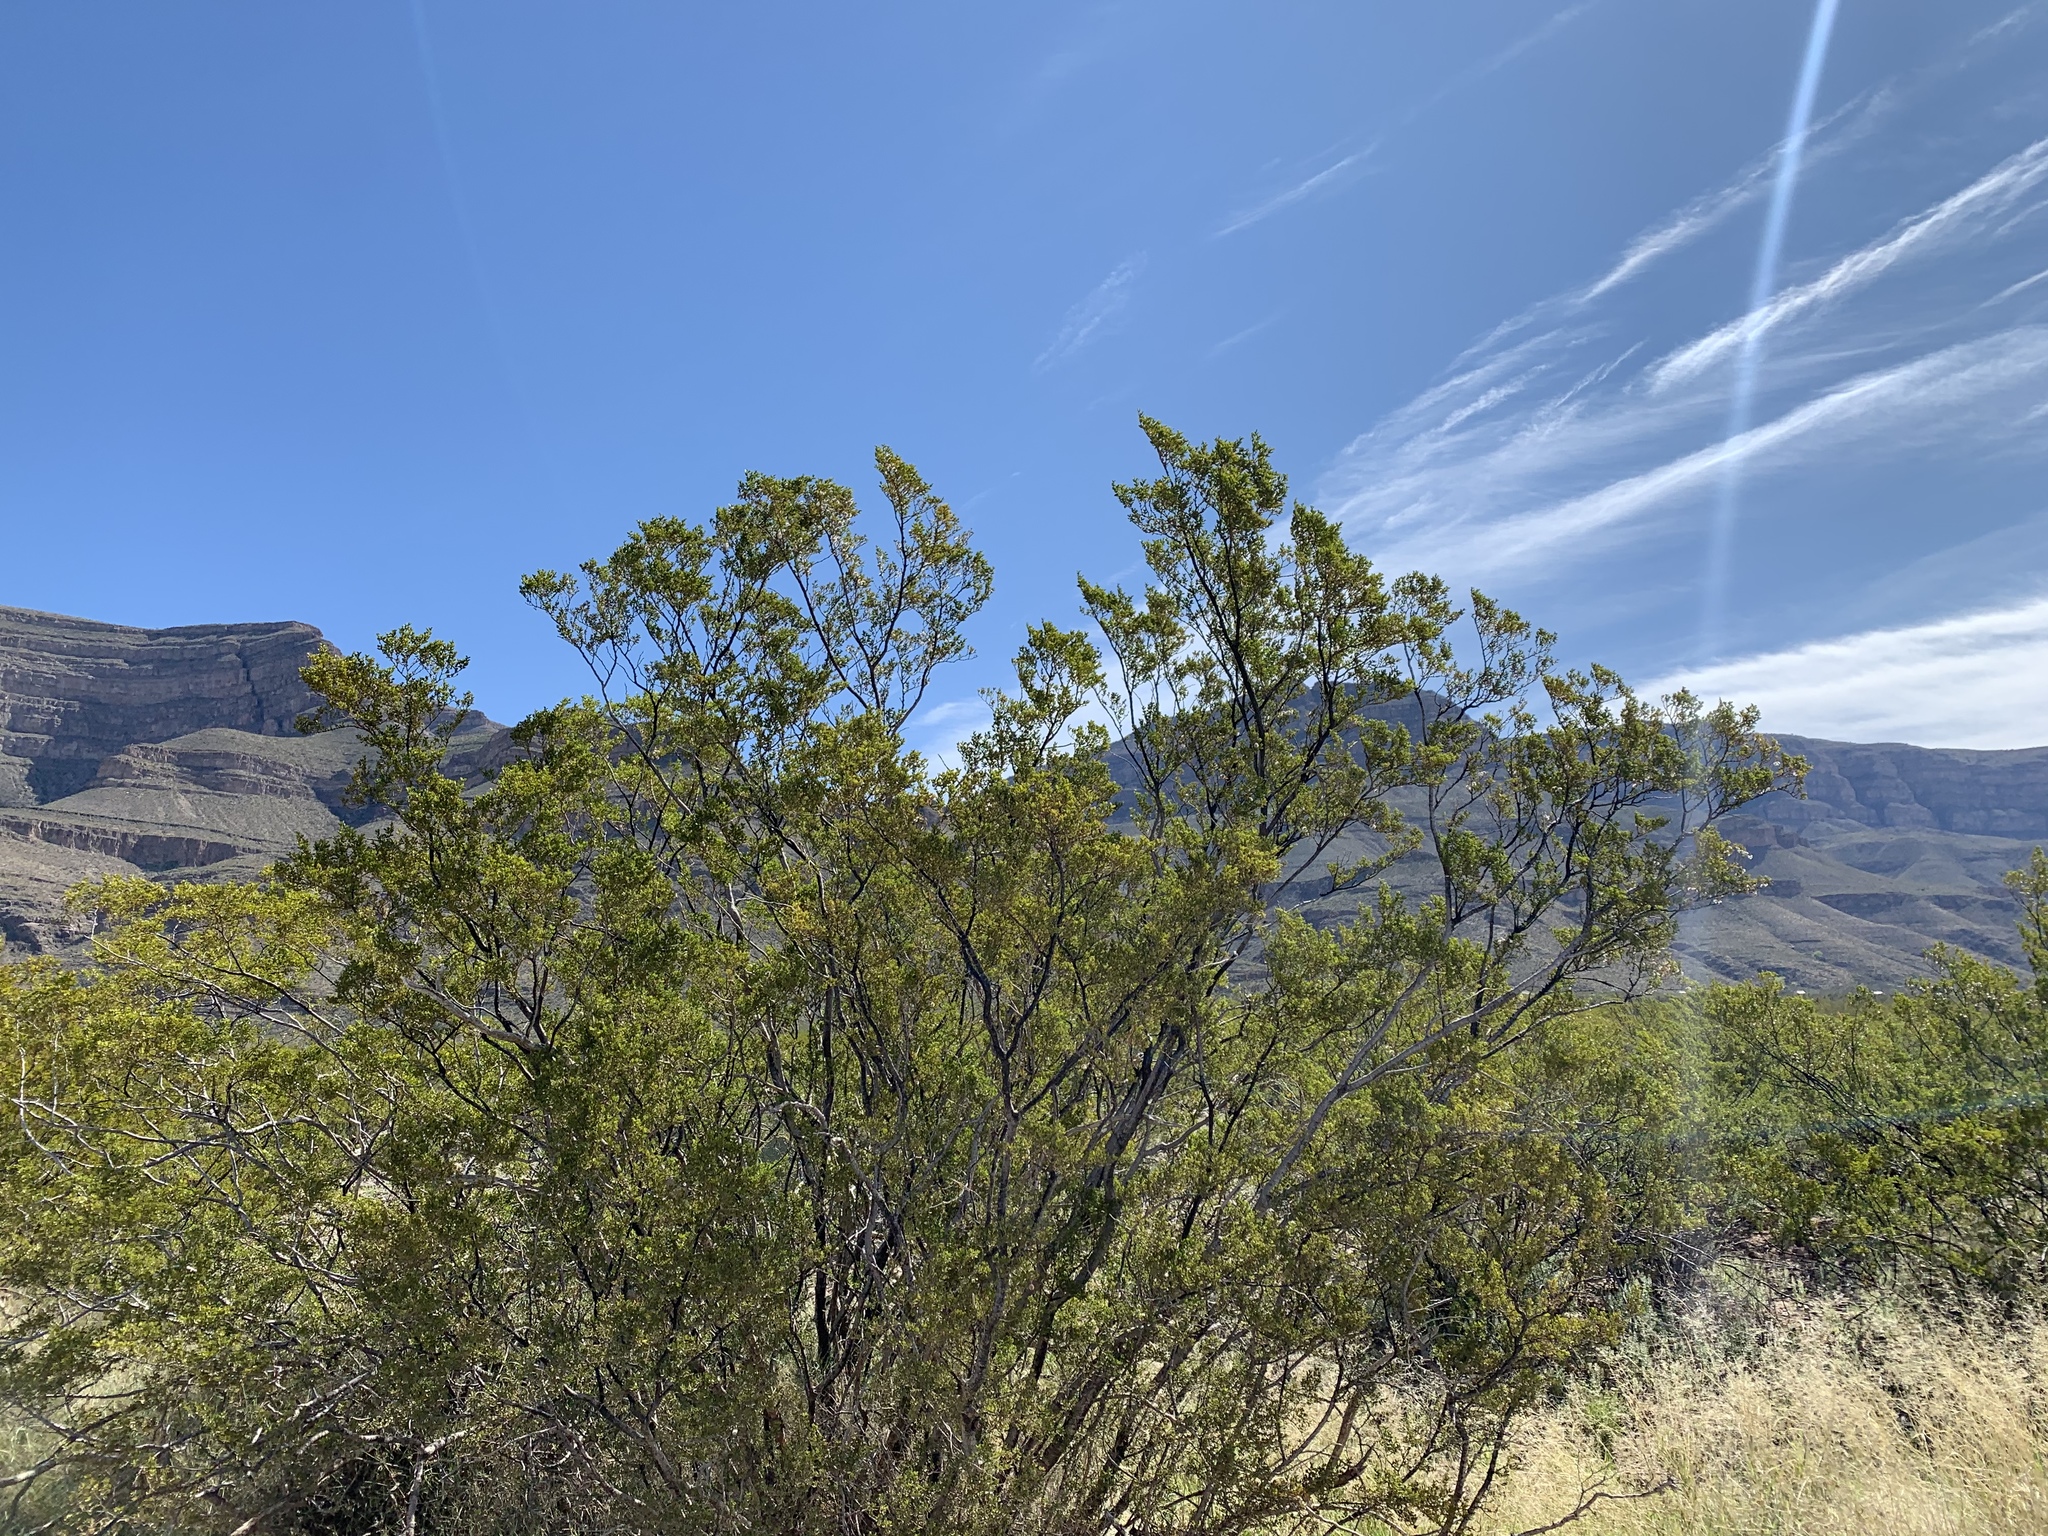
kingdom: Plantae
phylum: Tracheophyta
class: Magnoliopsida
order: Zygophyllales
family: Zygophyllaceae
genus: Larrea
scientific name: Larrea tridentata
